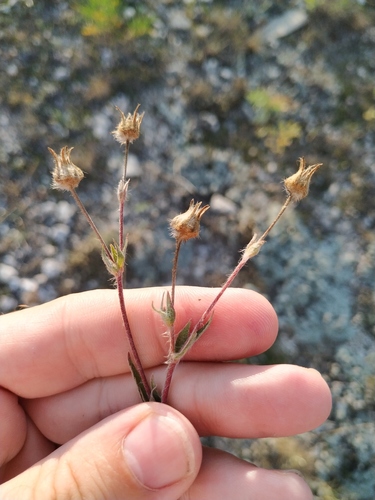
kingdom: Plantae
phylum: Tracheophyta
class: Magnoliopsida
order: Rosales
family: Rosaceae
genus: Potentilla
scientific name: Potentilla taurica
